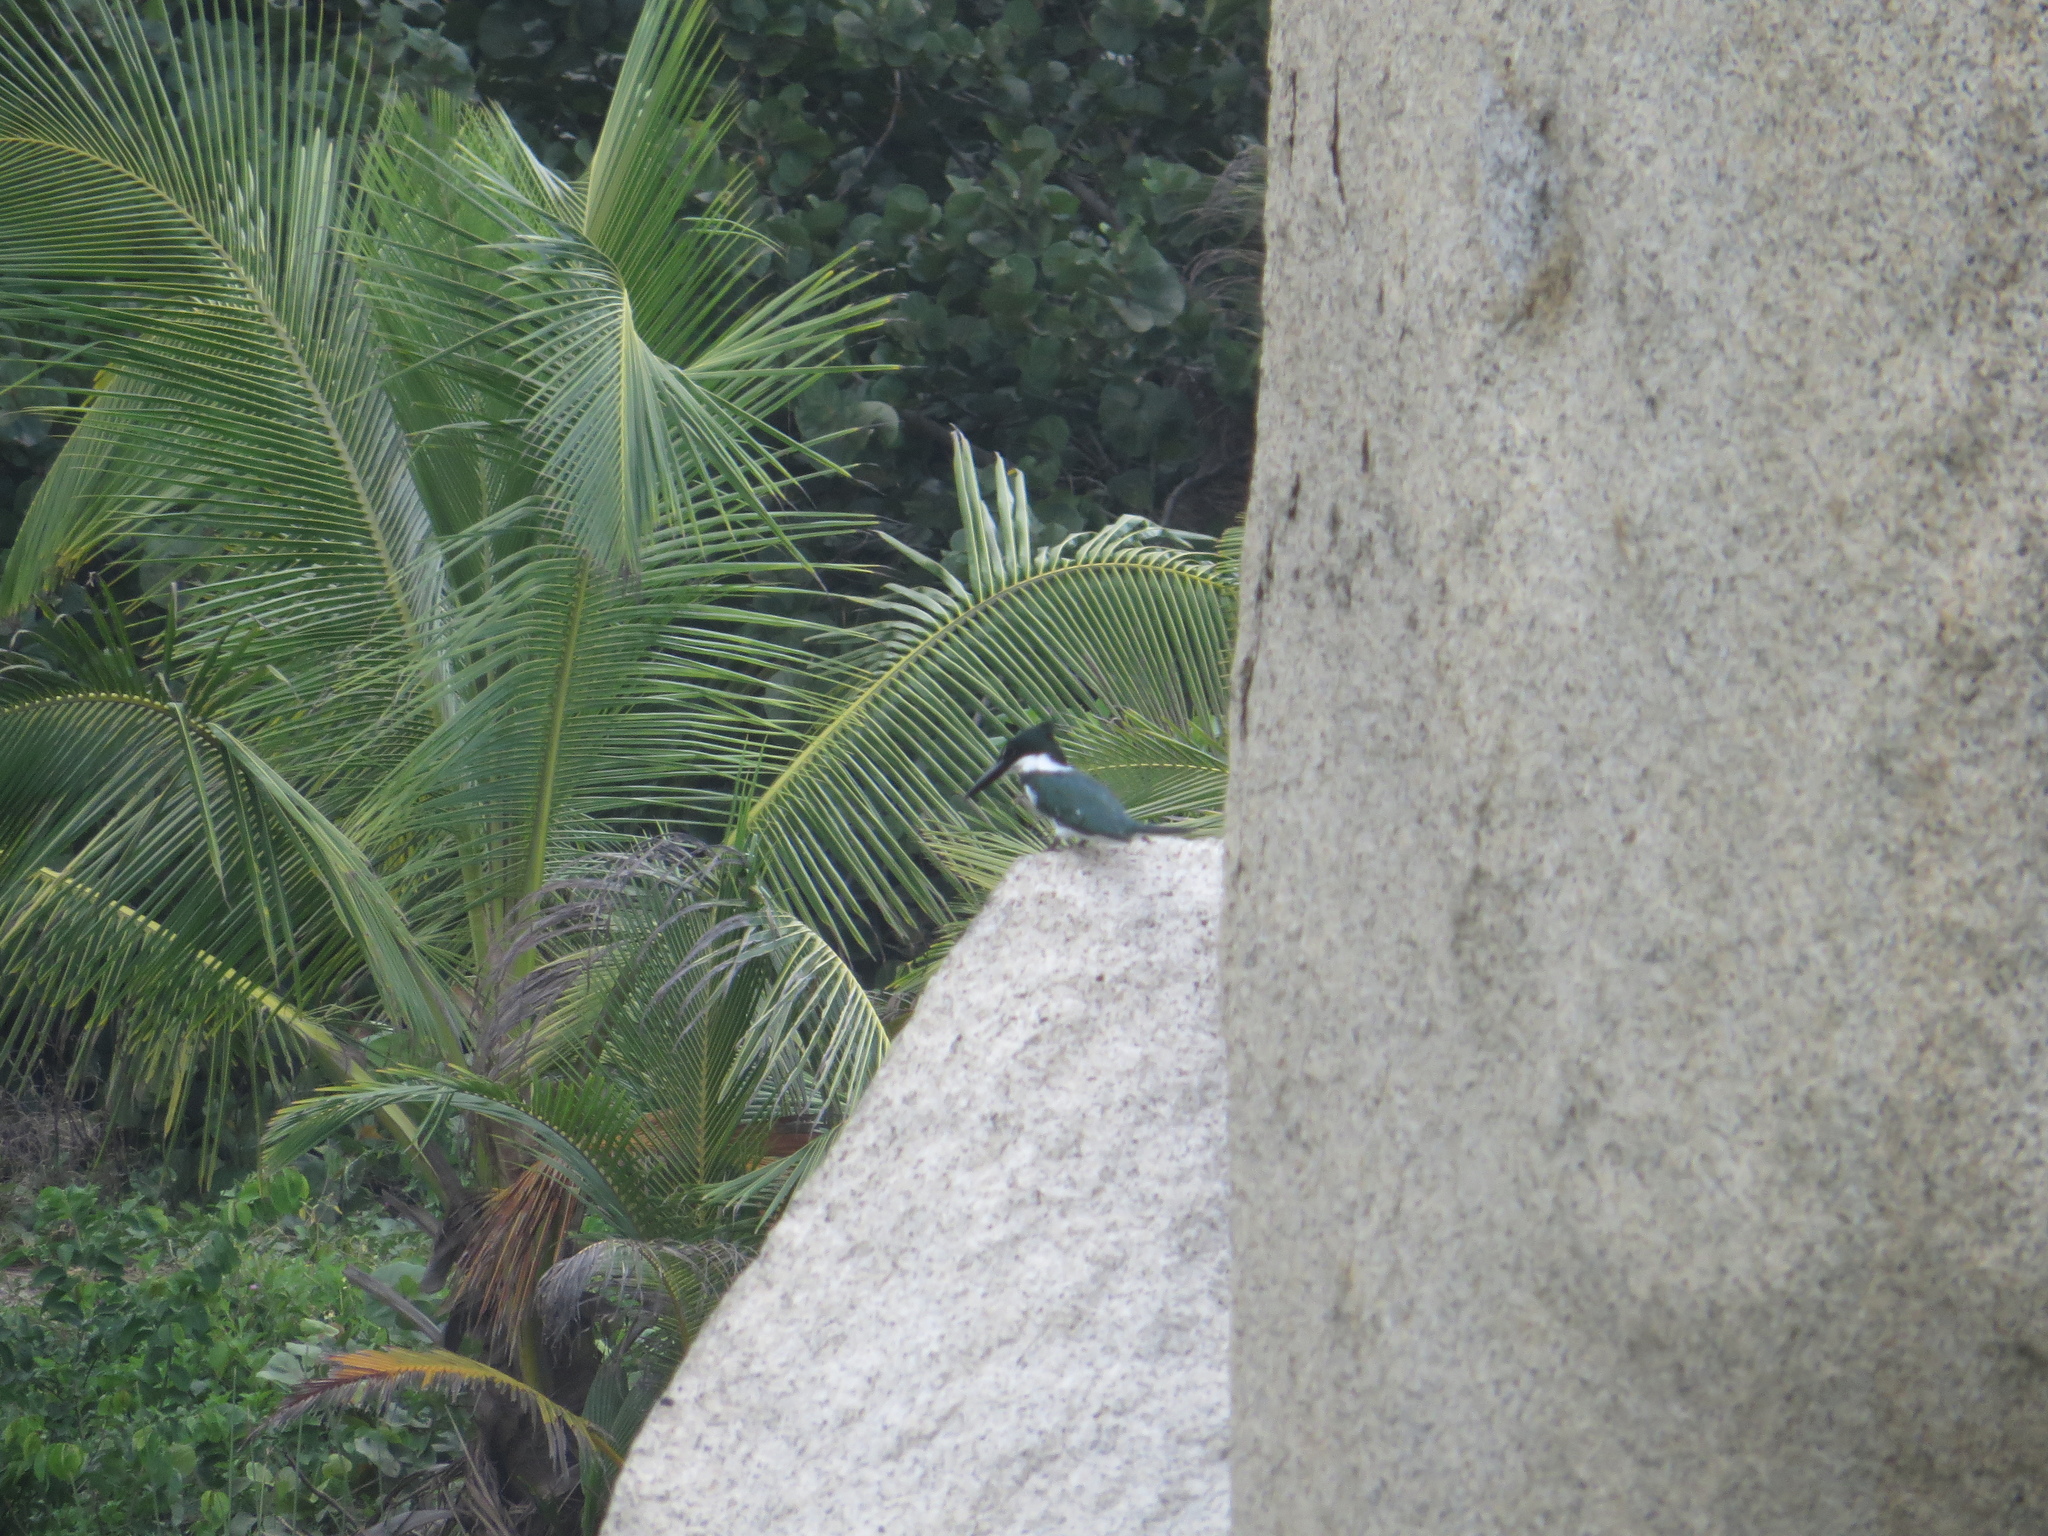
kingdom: Animalia
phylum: Chordata
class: Aves
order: Coraciiformes
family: Alcedinidae
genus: Chloroceryle
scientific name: Chloroceryle americana
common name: Green kingfisher
